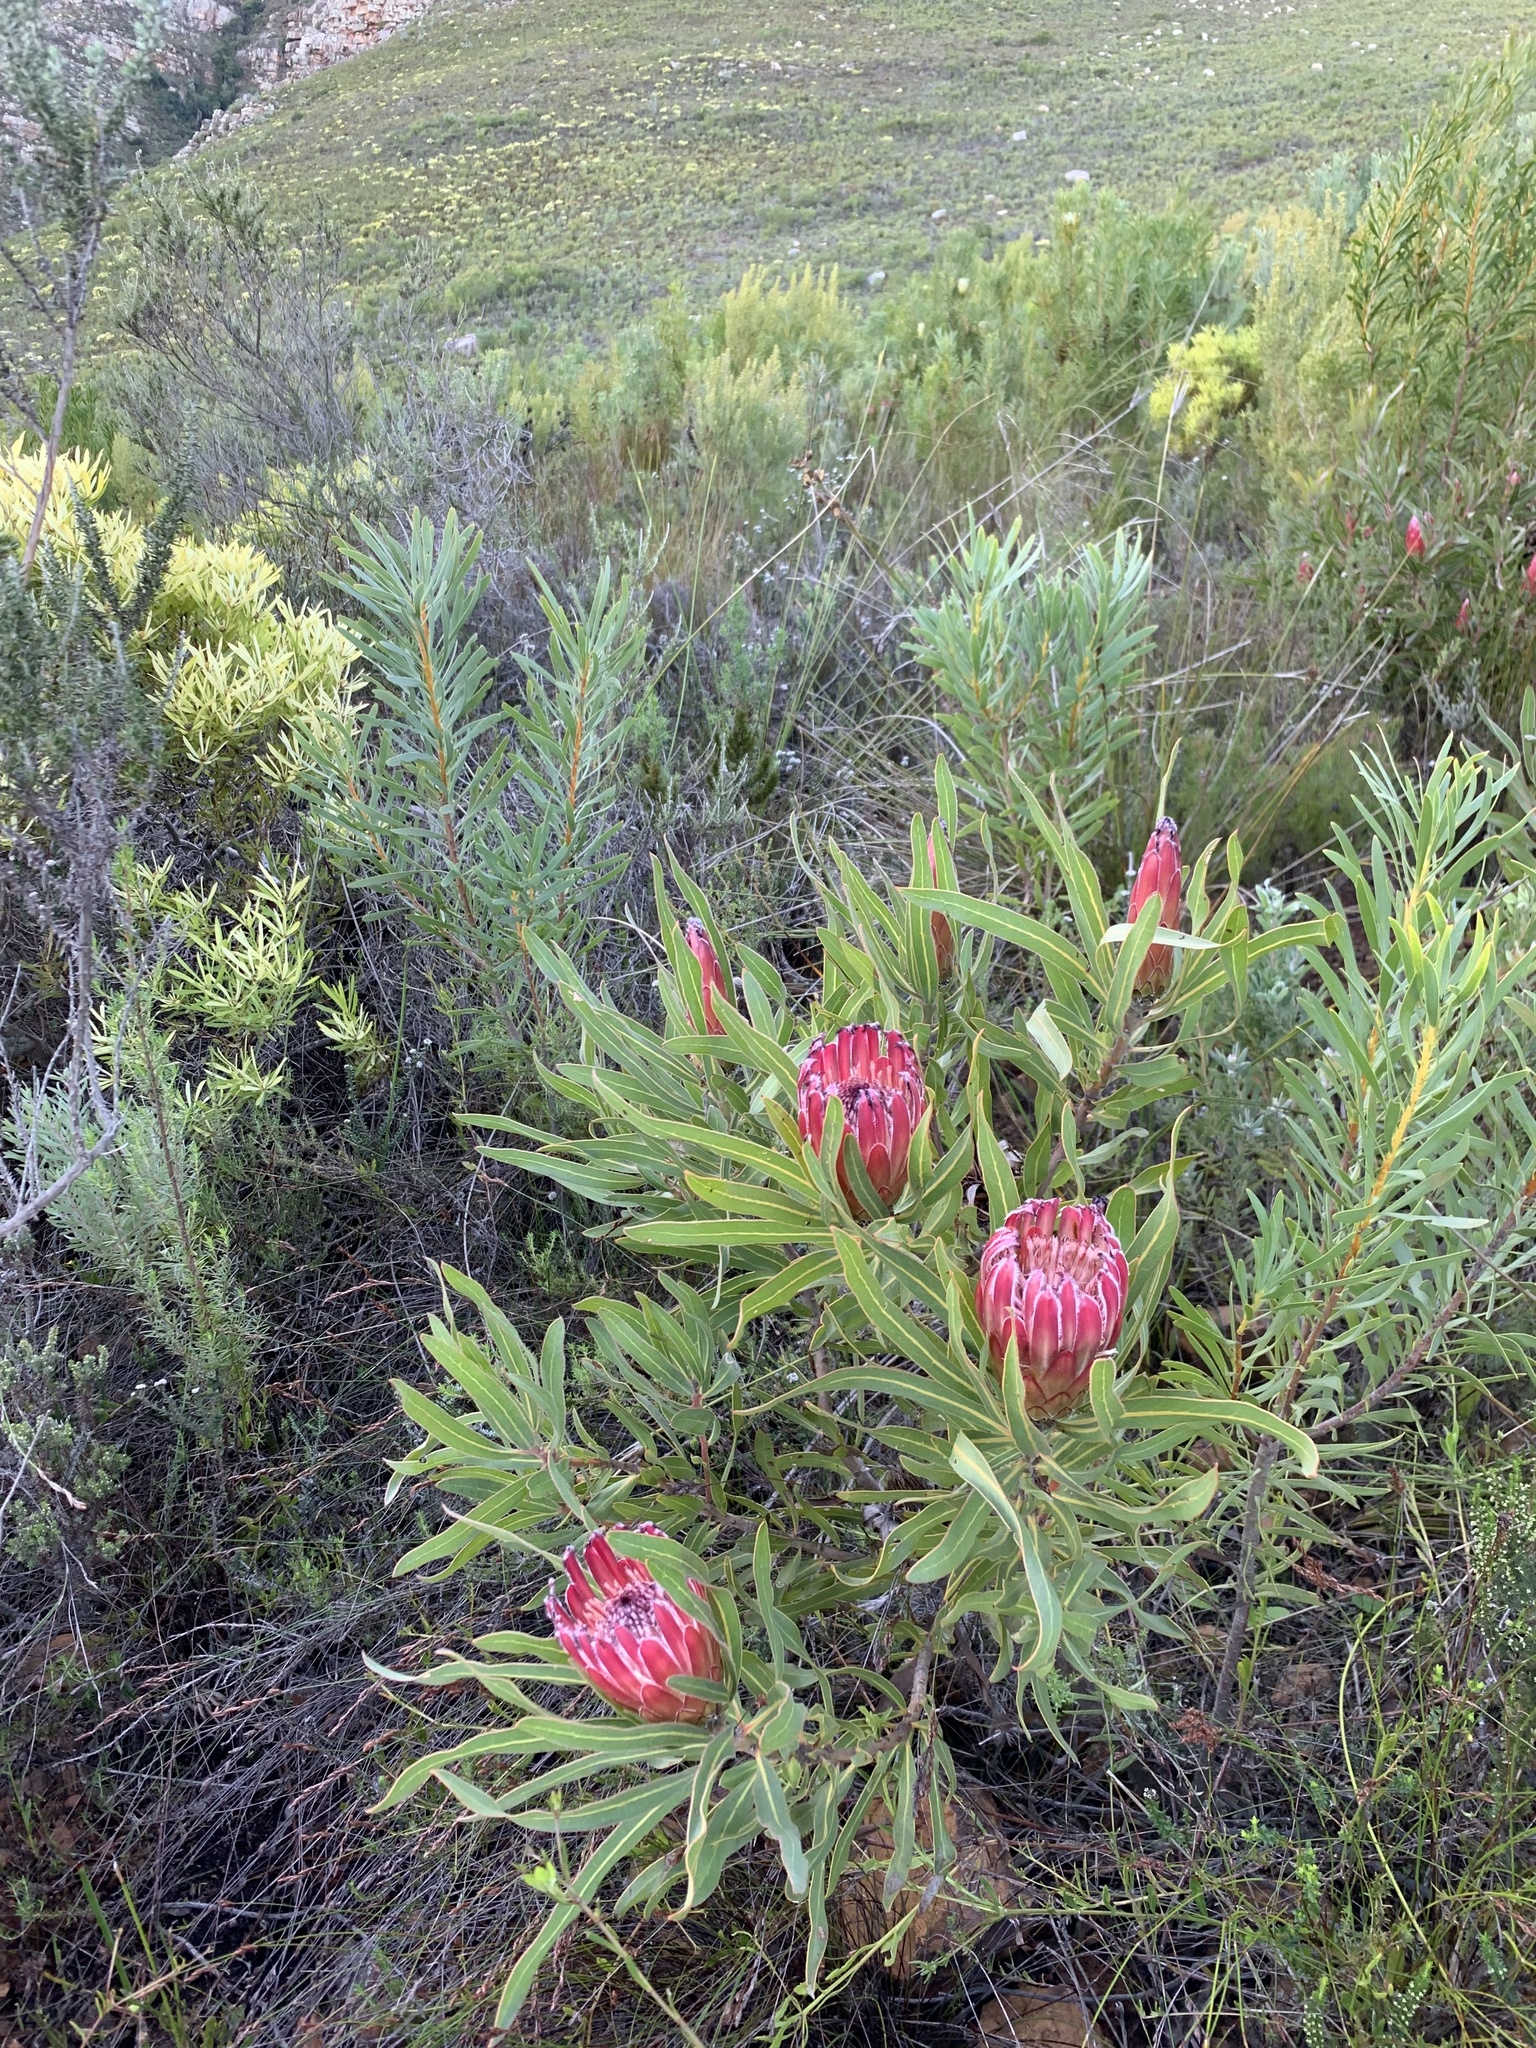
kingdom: Plantae
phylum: Tracheophyta
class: Magnoliopsida
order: Proteales
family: Proteaceae
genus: Protea
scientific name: Protea burchellii
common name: Burchell's sugarbush
